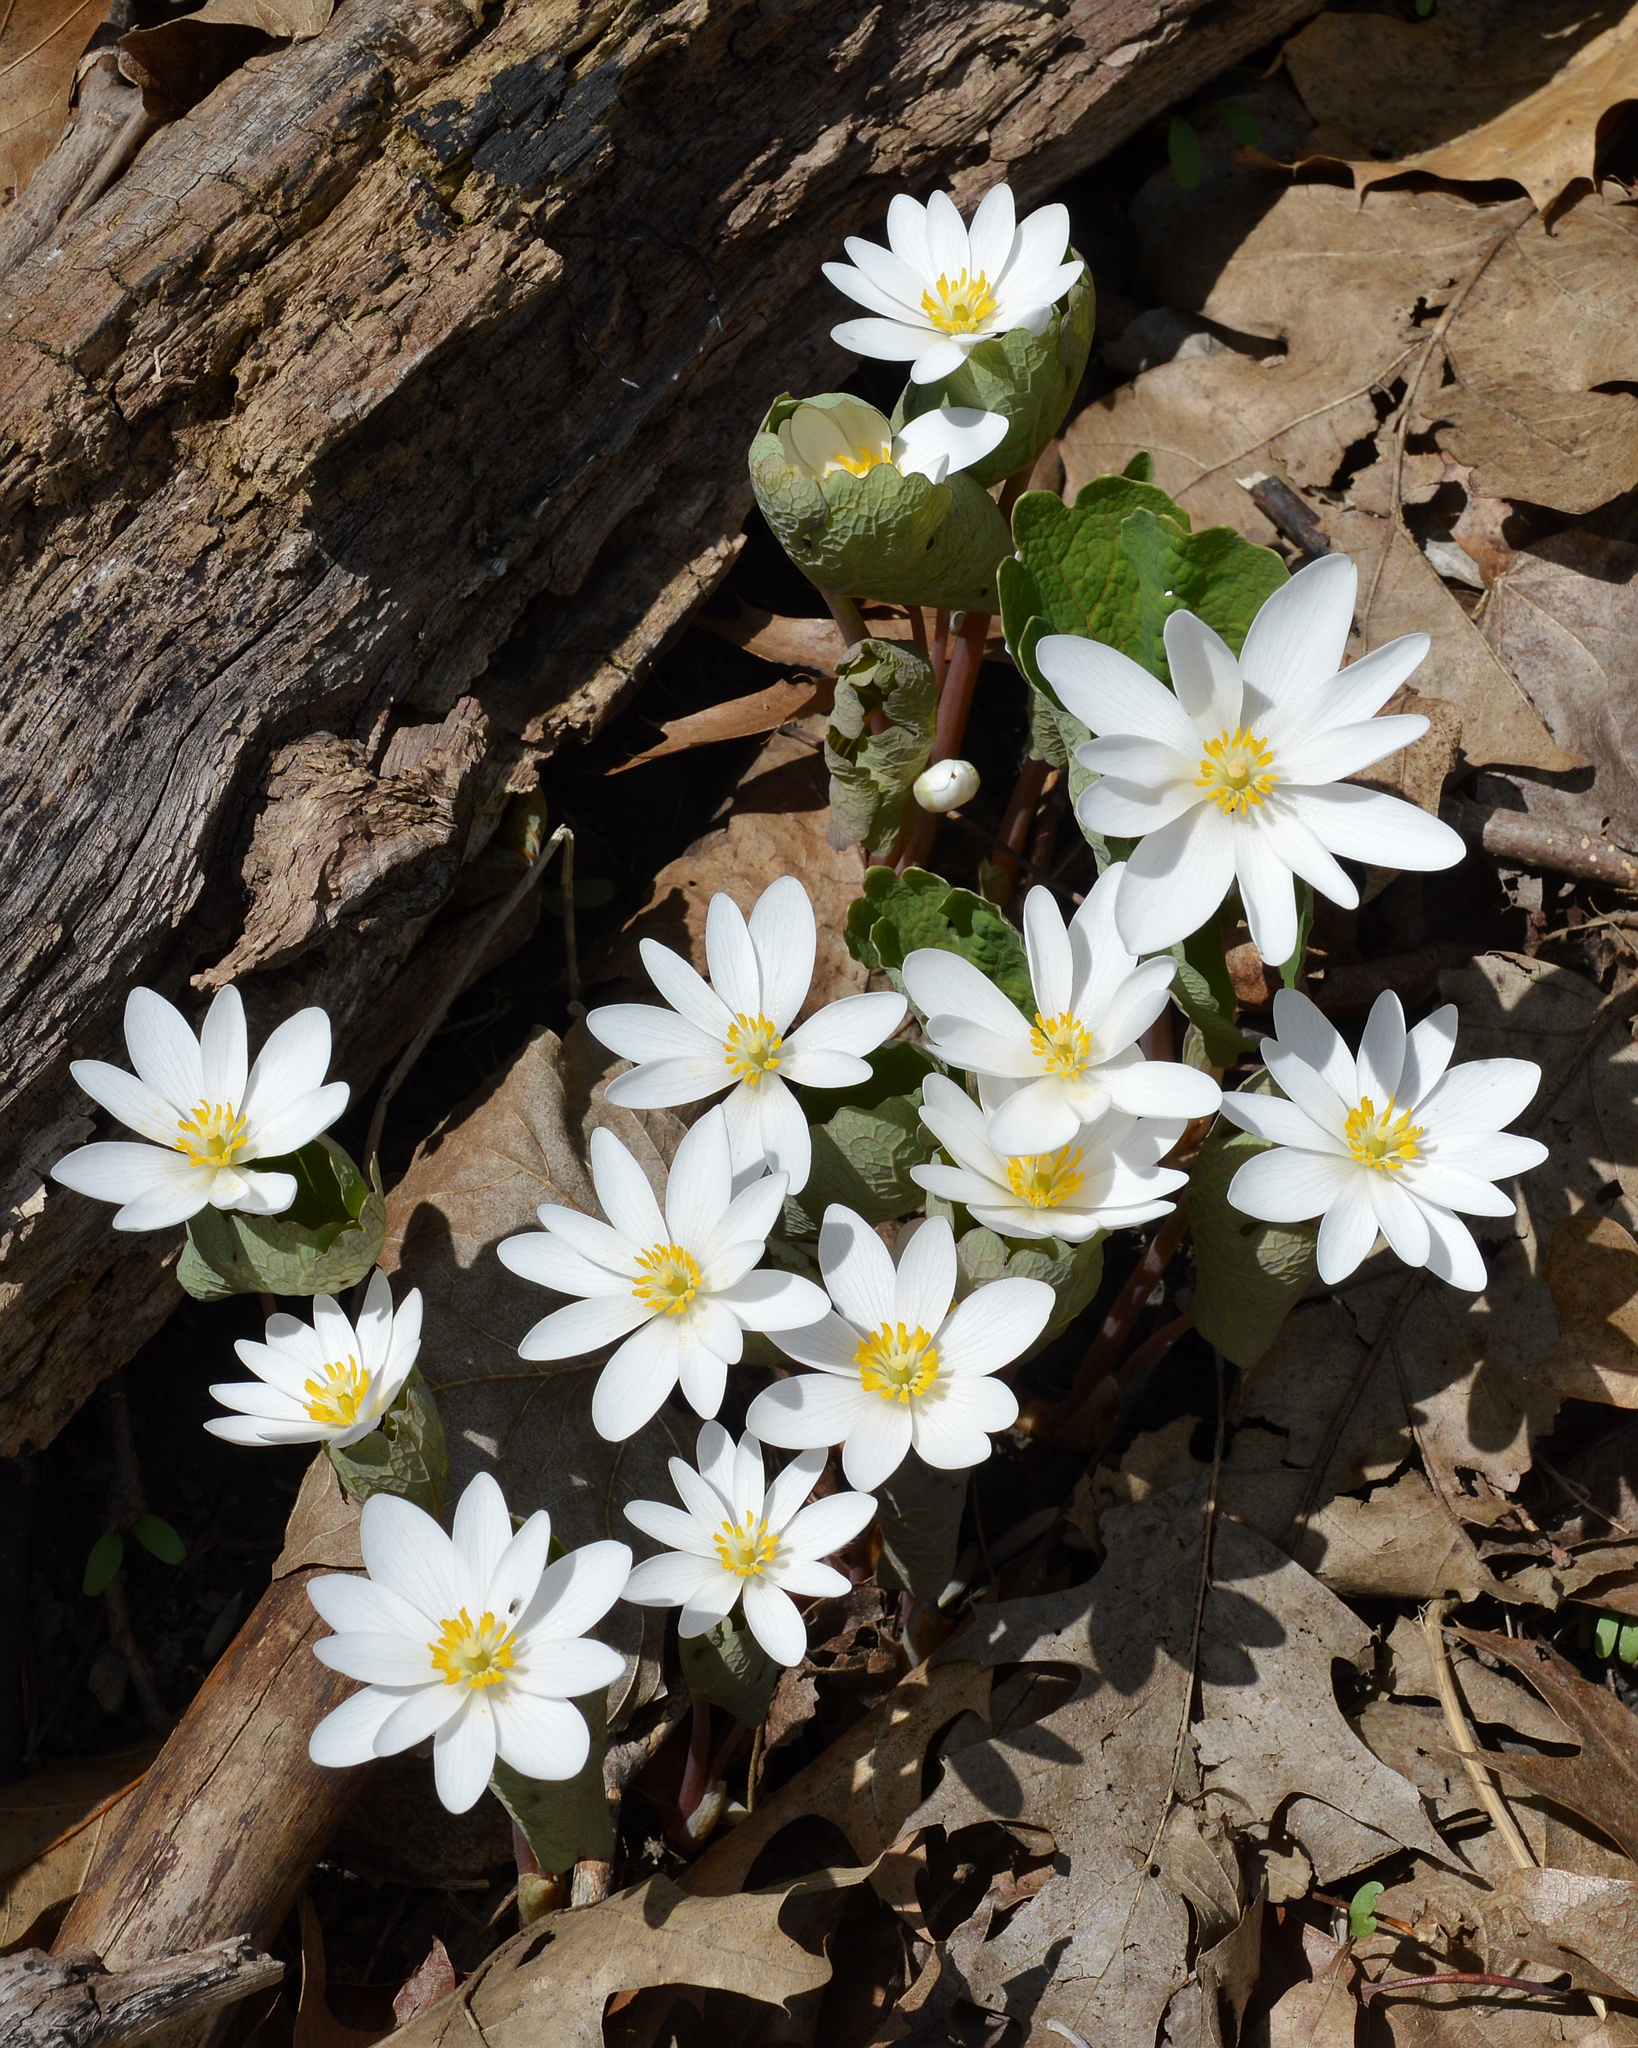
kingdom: Plantae
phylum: Tracheophyta
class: Magnoliopsida
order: Ranunculales
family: Papaveraceae
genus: Sanguinaria
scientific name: Sanguinaria canadensis
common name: Bloodroot
